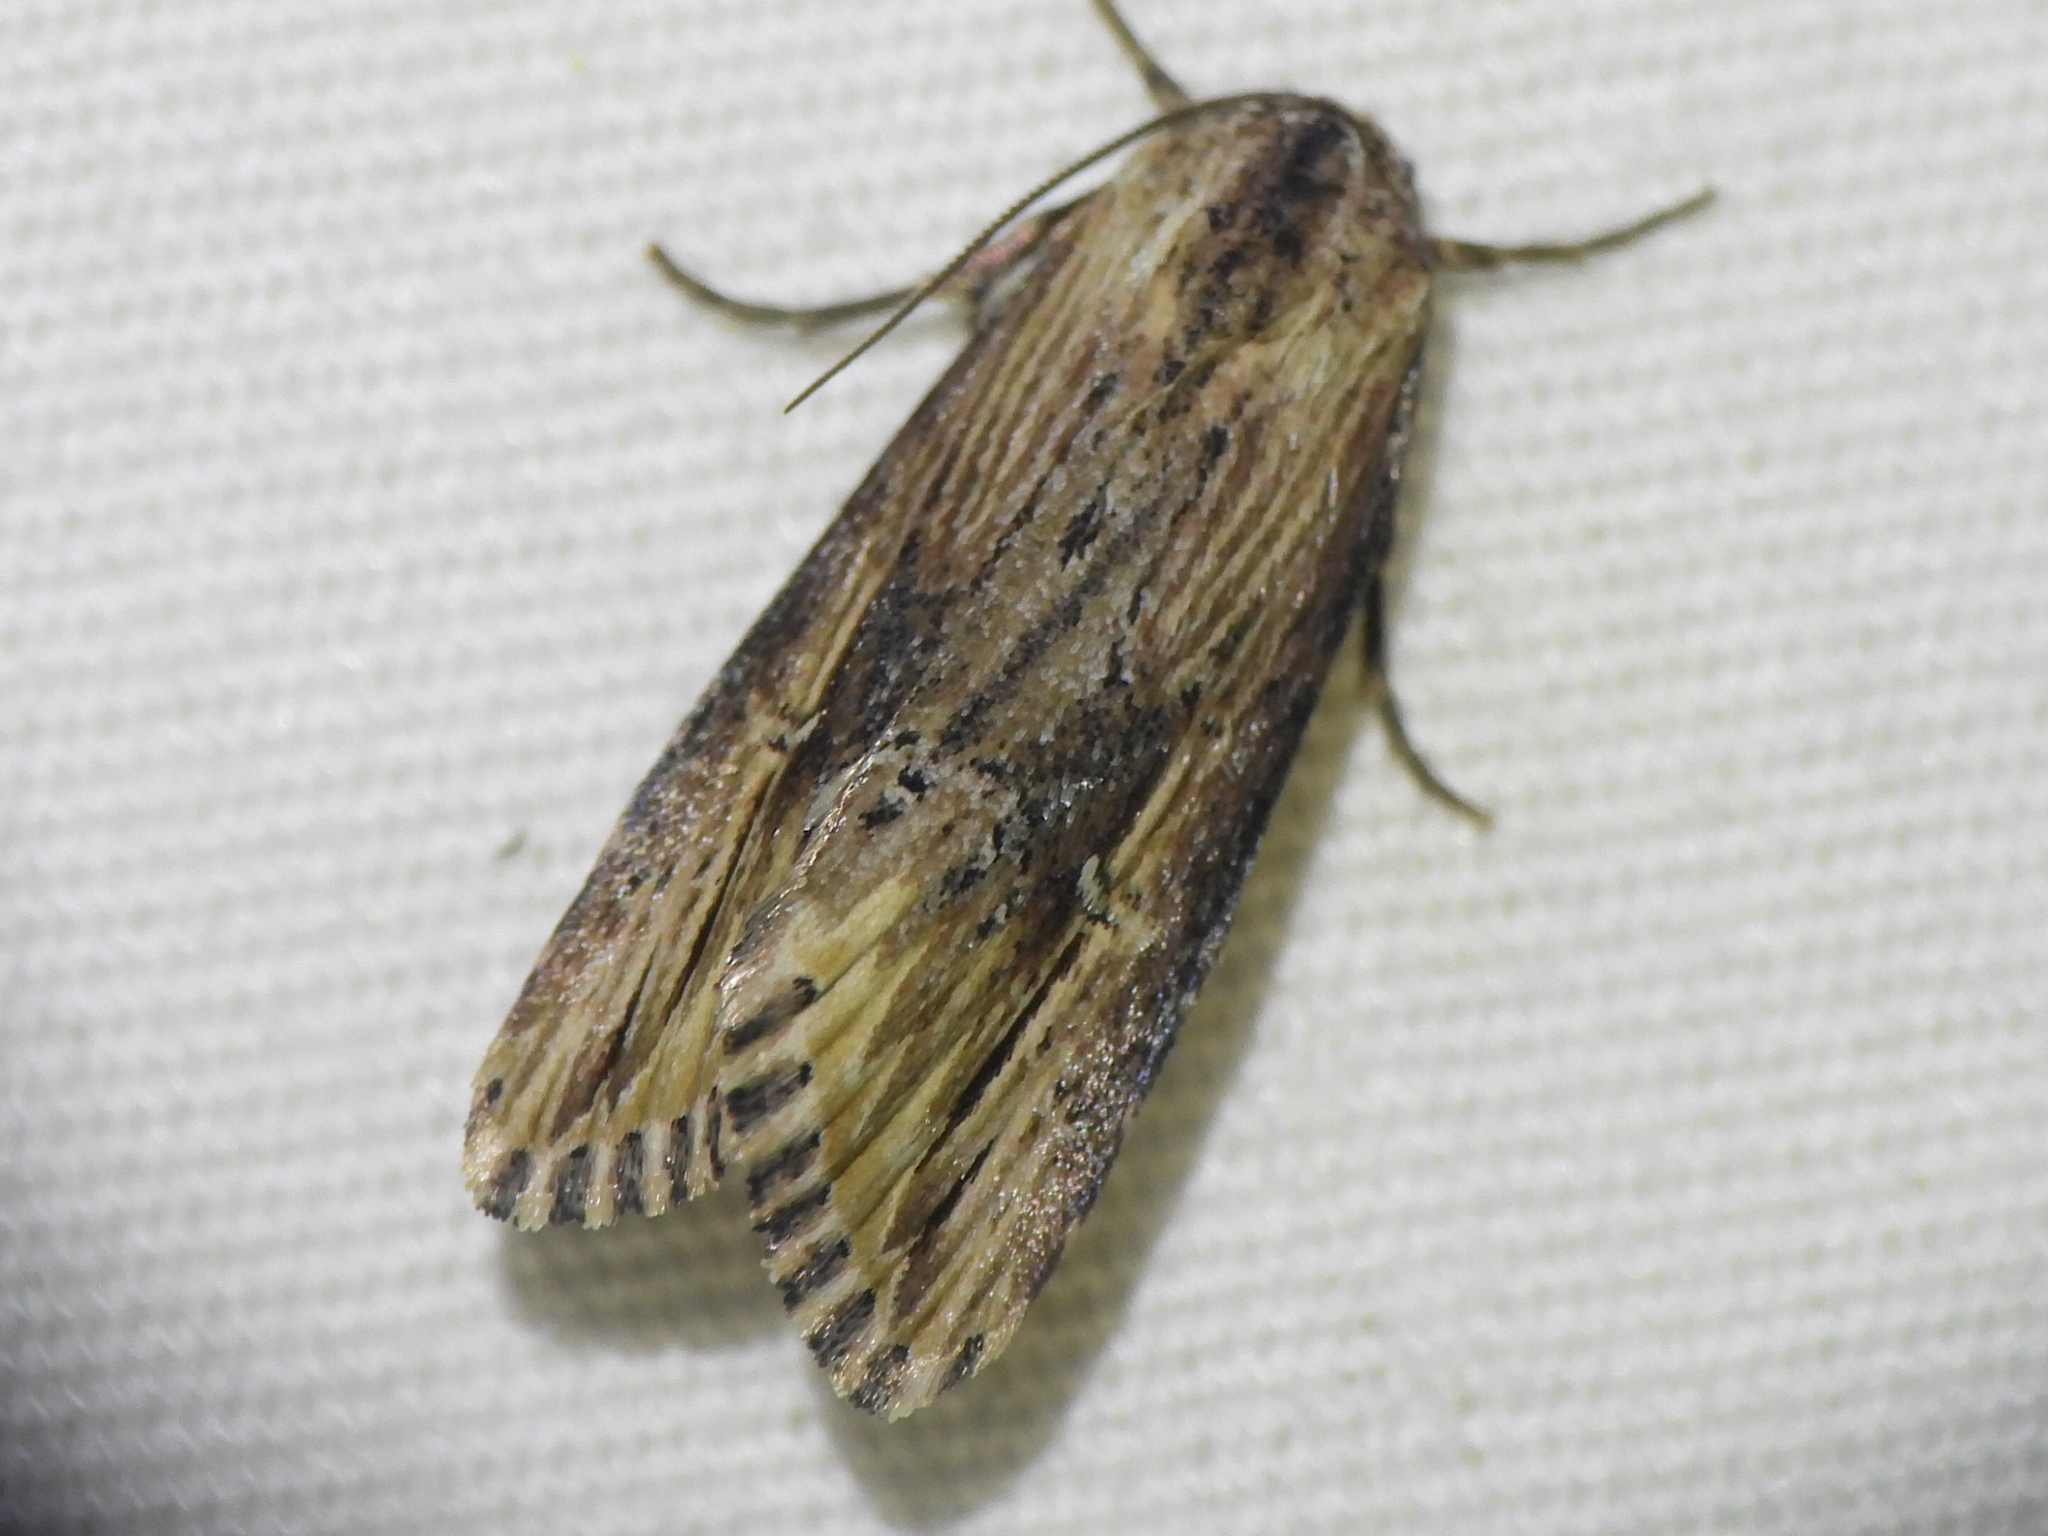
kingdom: Animalia
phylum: Arthropoda
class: Insecta
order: Lepidoptera
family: Noctuidae
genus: Crambodes
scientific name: Crambodes talidiformis
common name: Verbena moth
